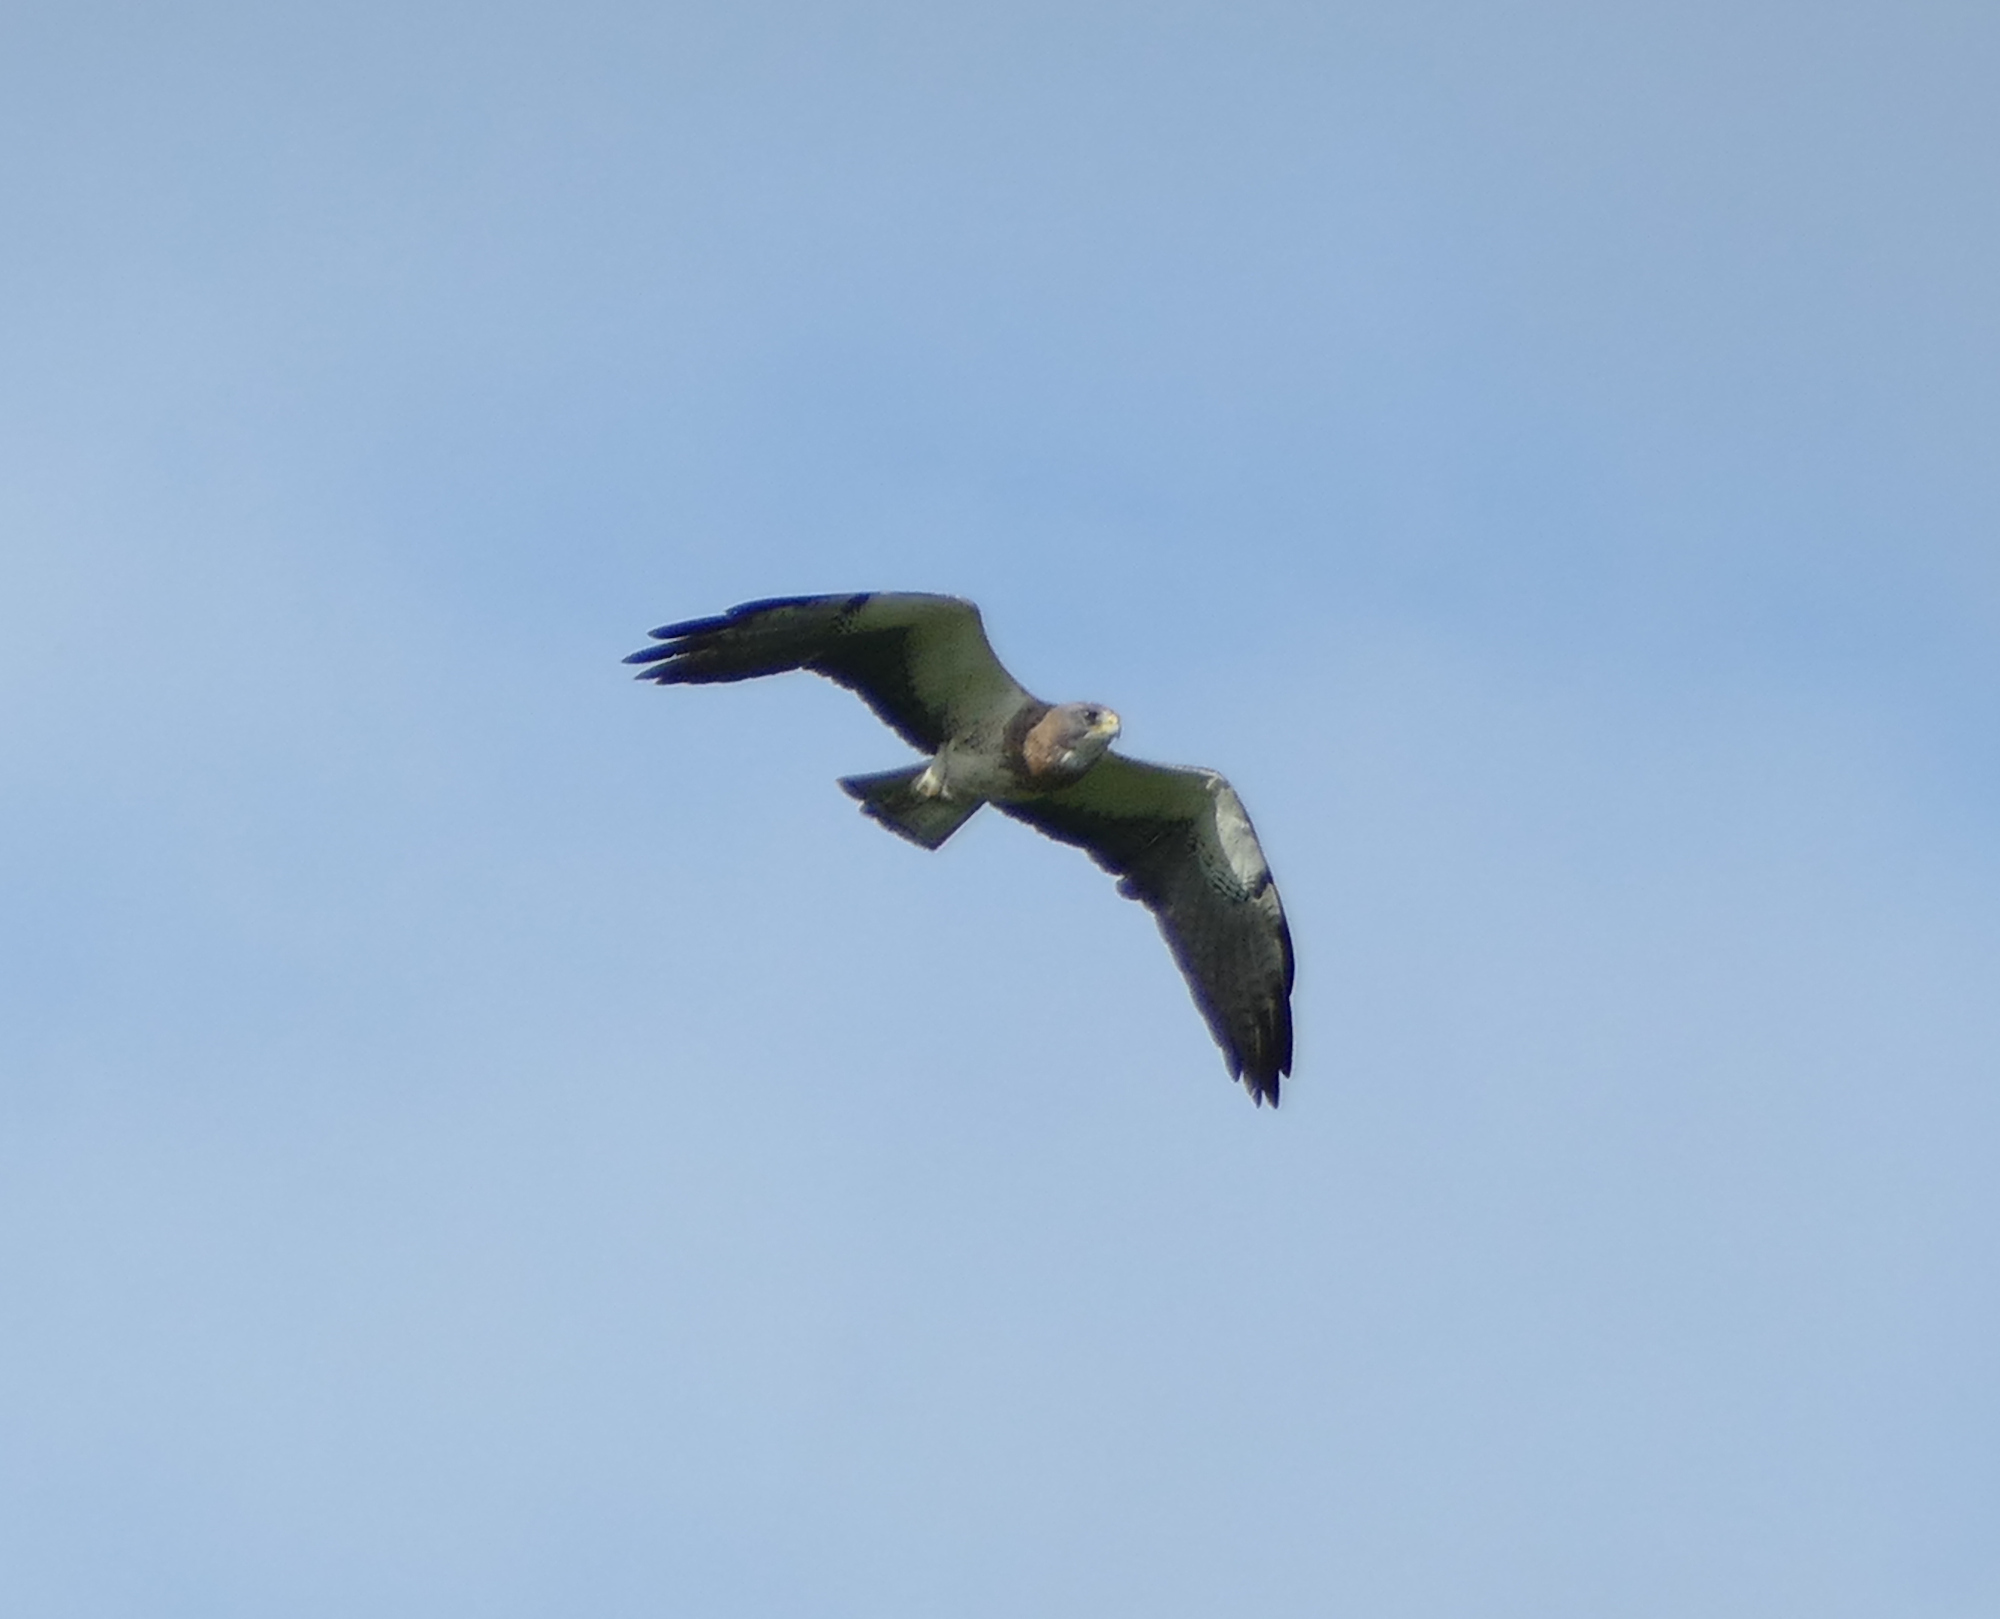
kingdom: Animalia
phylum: Chordata
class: Aves
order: Accipitriformes
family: Accipitridae
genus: Buteo
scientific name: Buteo swainsoni
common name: Swainson's hawk
